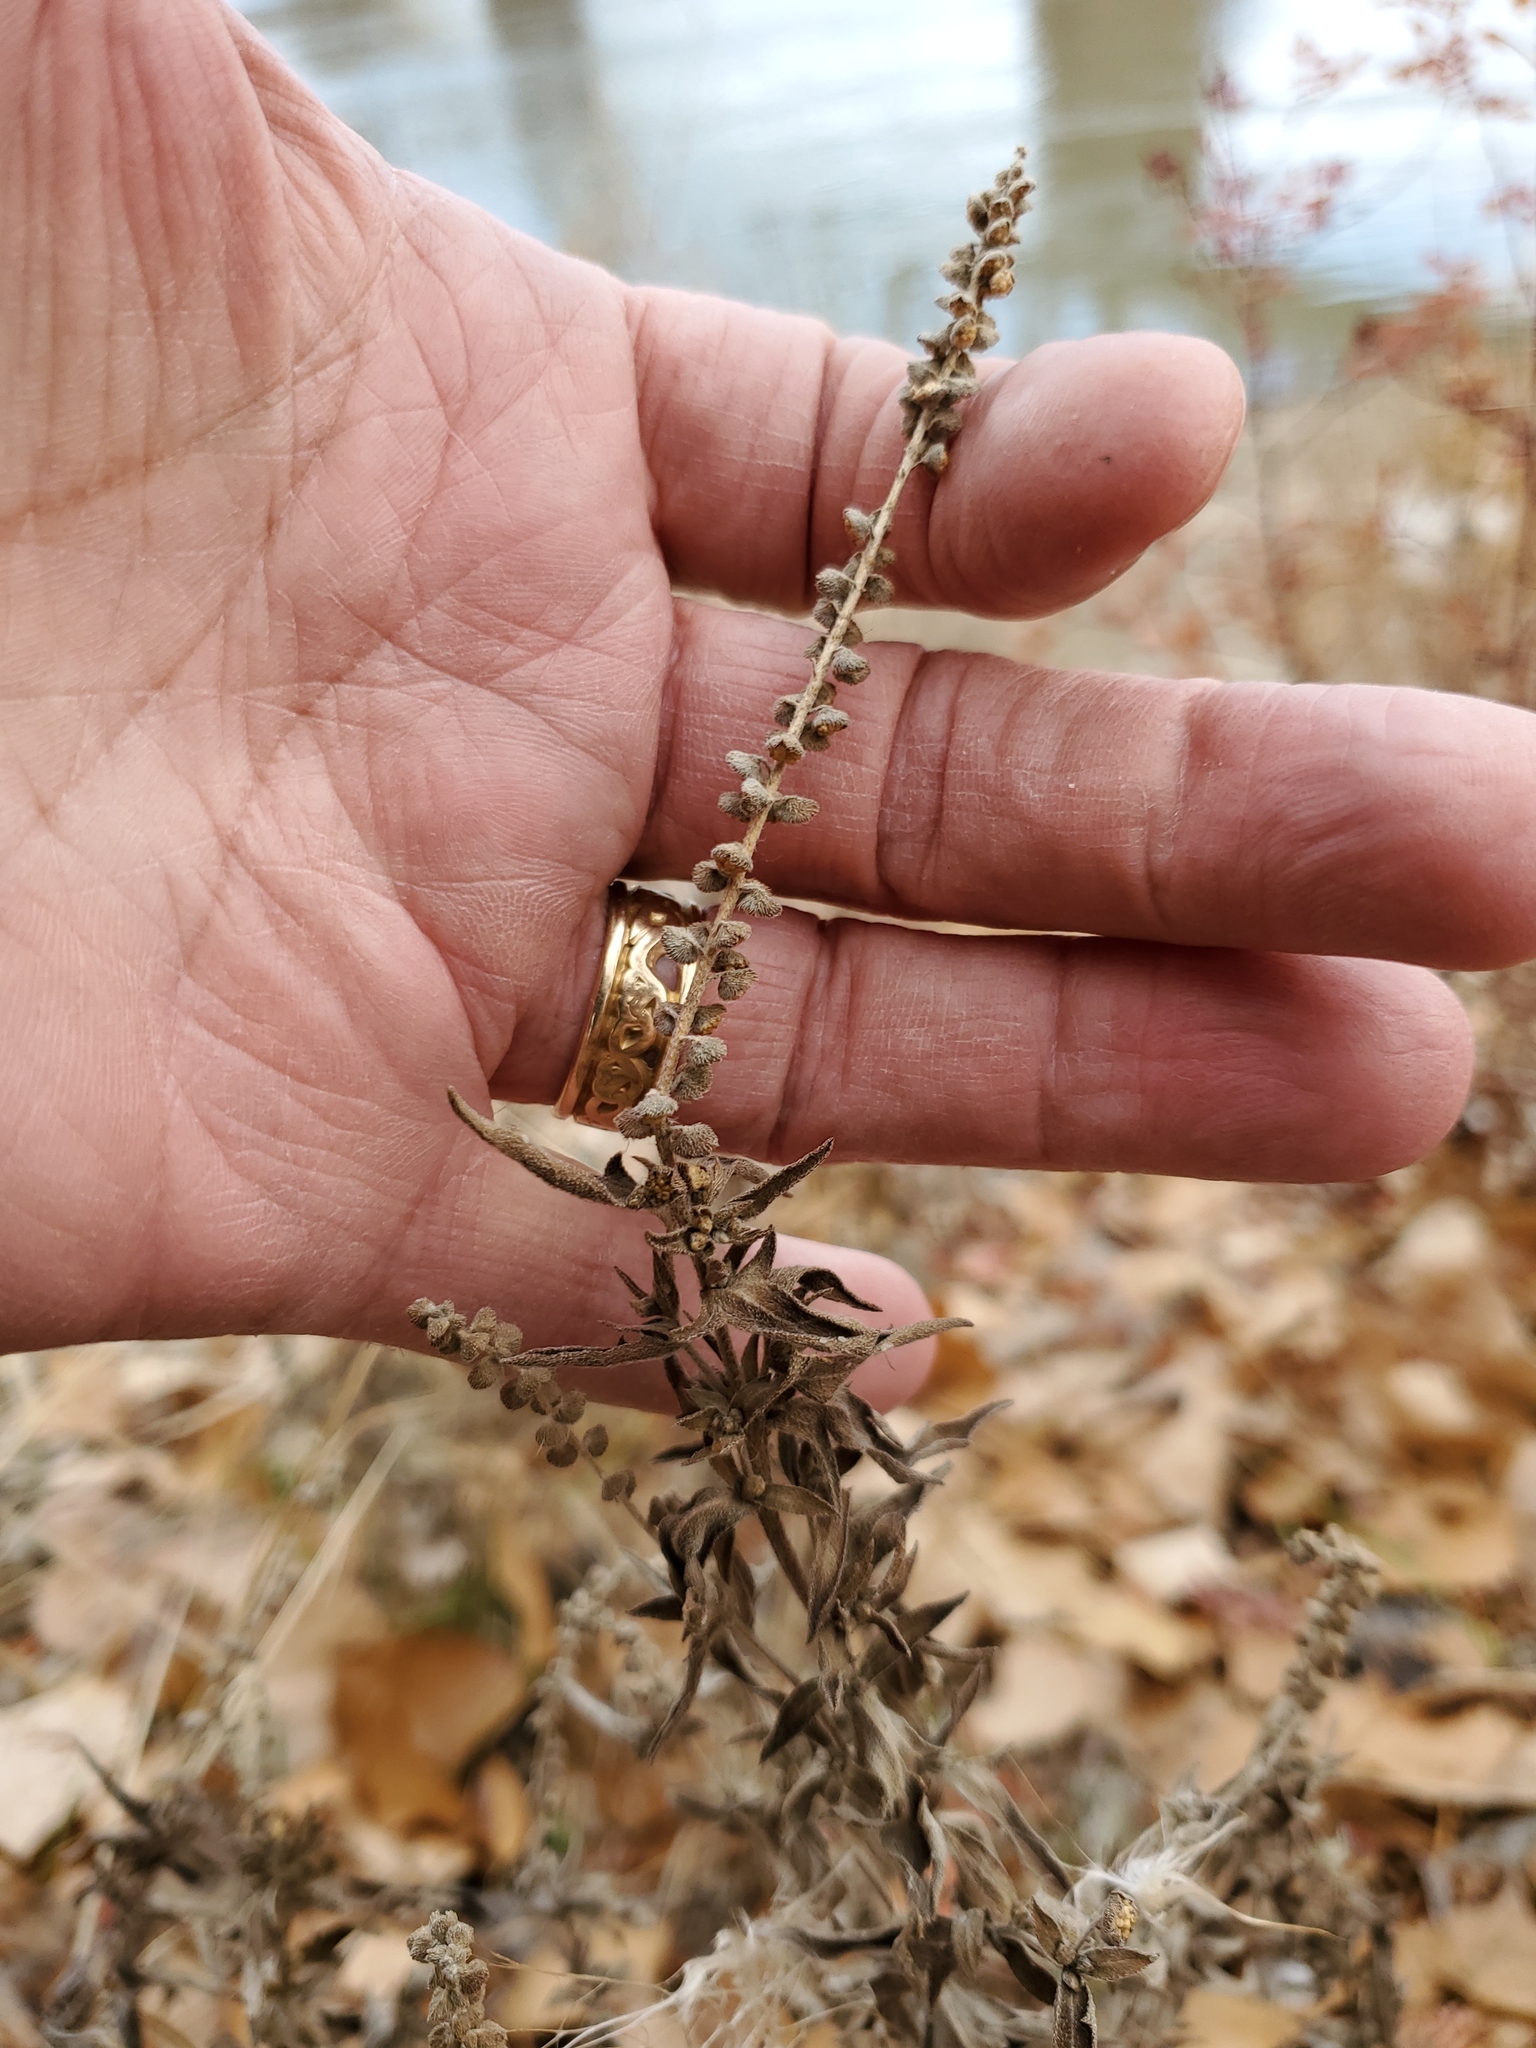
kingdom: Plantae
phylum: Tracheophyta
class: Magnoliopsida
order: Asterales
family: Asteraceae
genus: Ambrosia
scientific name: Ambrosia psilostachya
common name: Perennial ragweed
